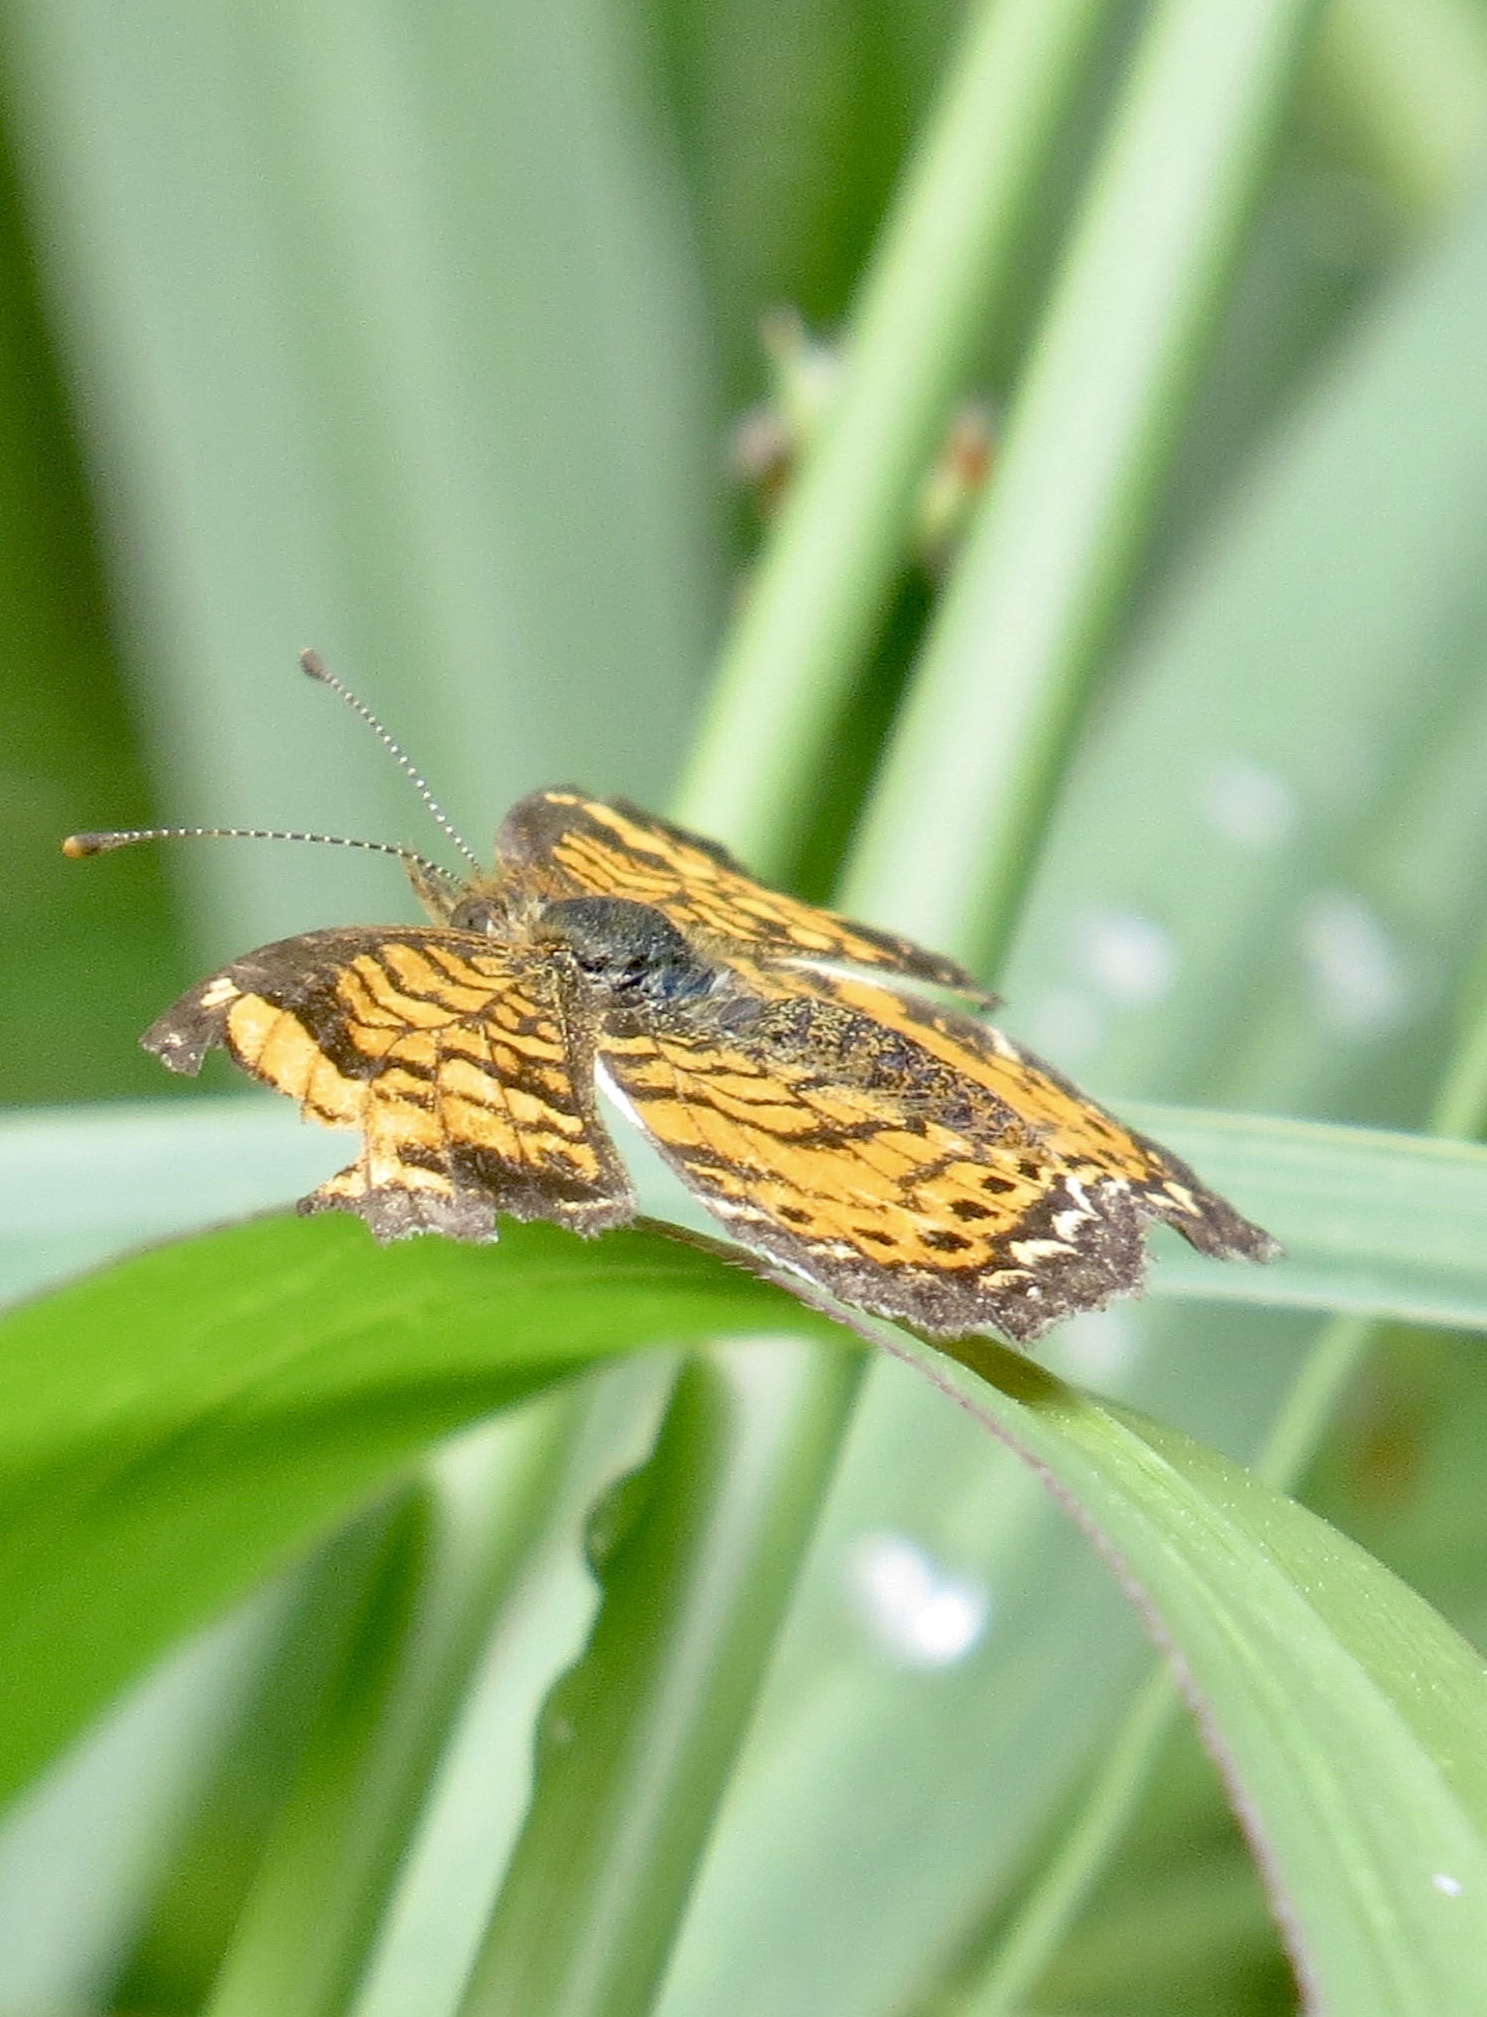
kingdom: Animalia
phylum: Arthropoda
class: Insecta
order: Lepidoptera
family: Nymphalidae
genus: Phyciodes
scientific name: Phyciodes tharos
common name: Pearl crescent
